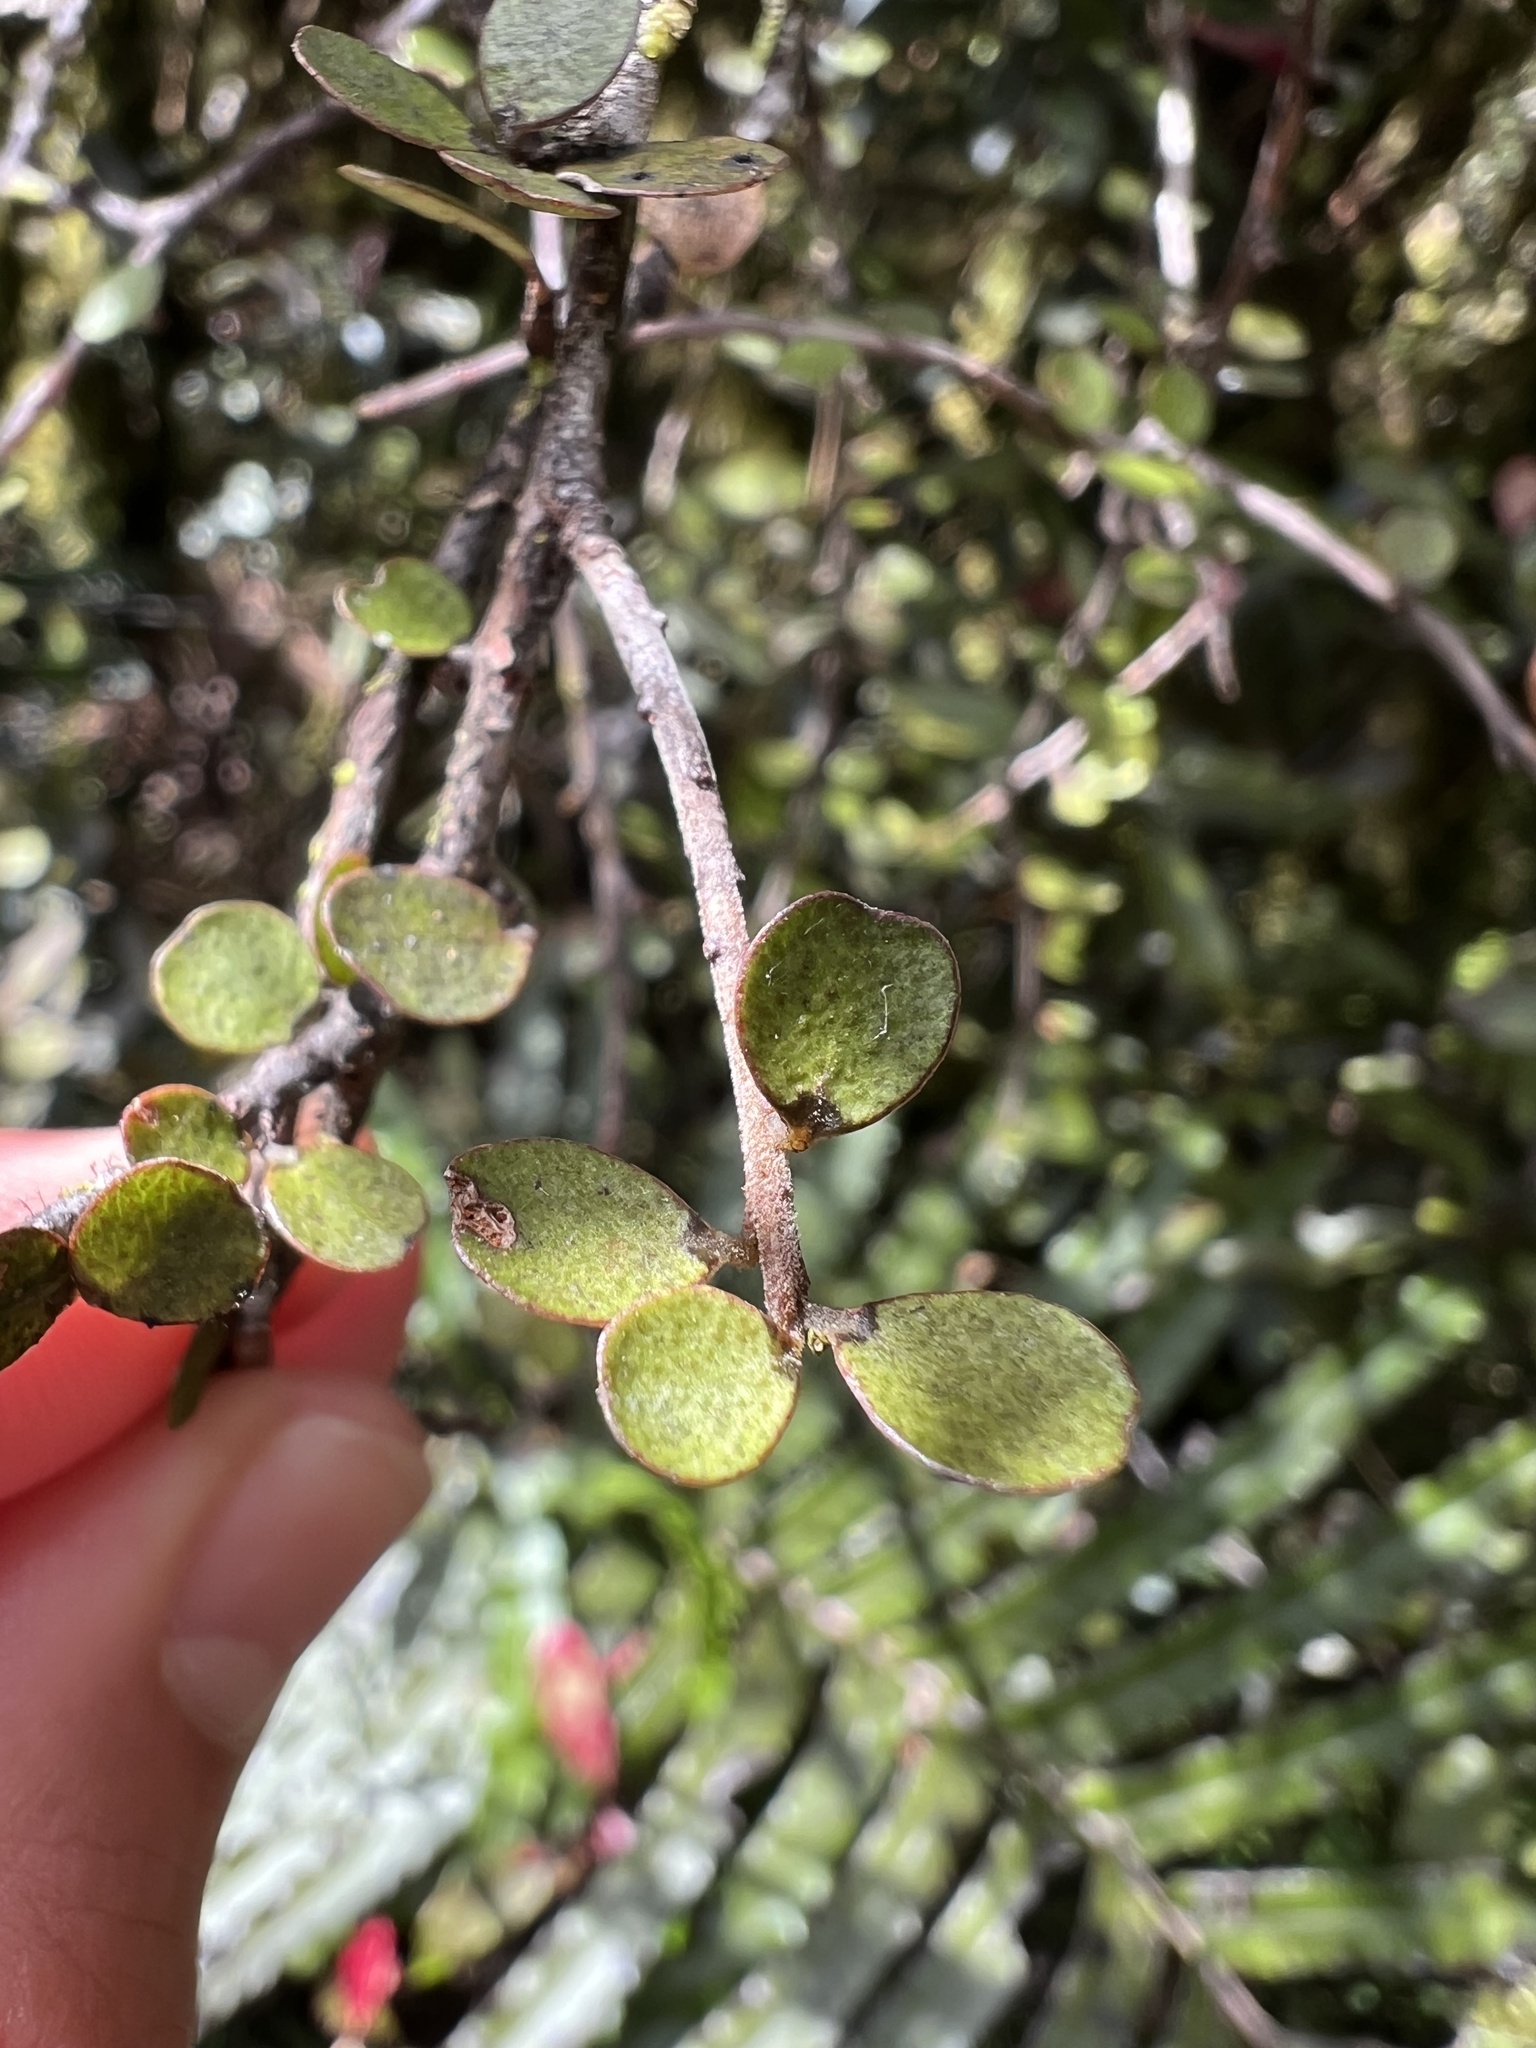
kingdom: Plantae
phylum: Tracheophyta
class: Magnoliopsida
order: Ericales
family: Primulaceae
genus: Myrsine
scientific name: Myrsine divaricata
